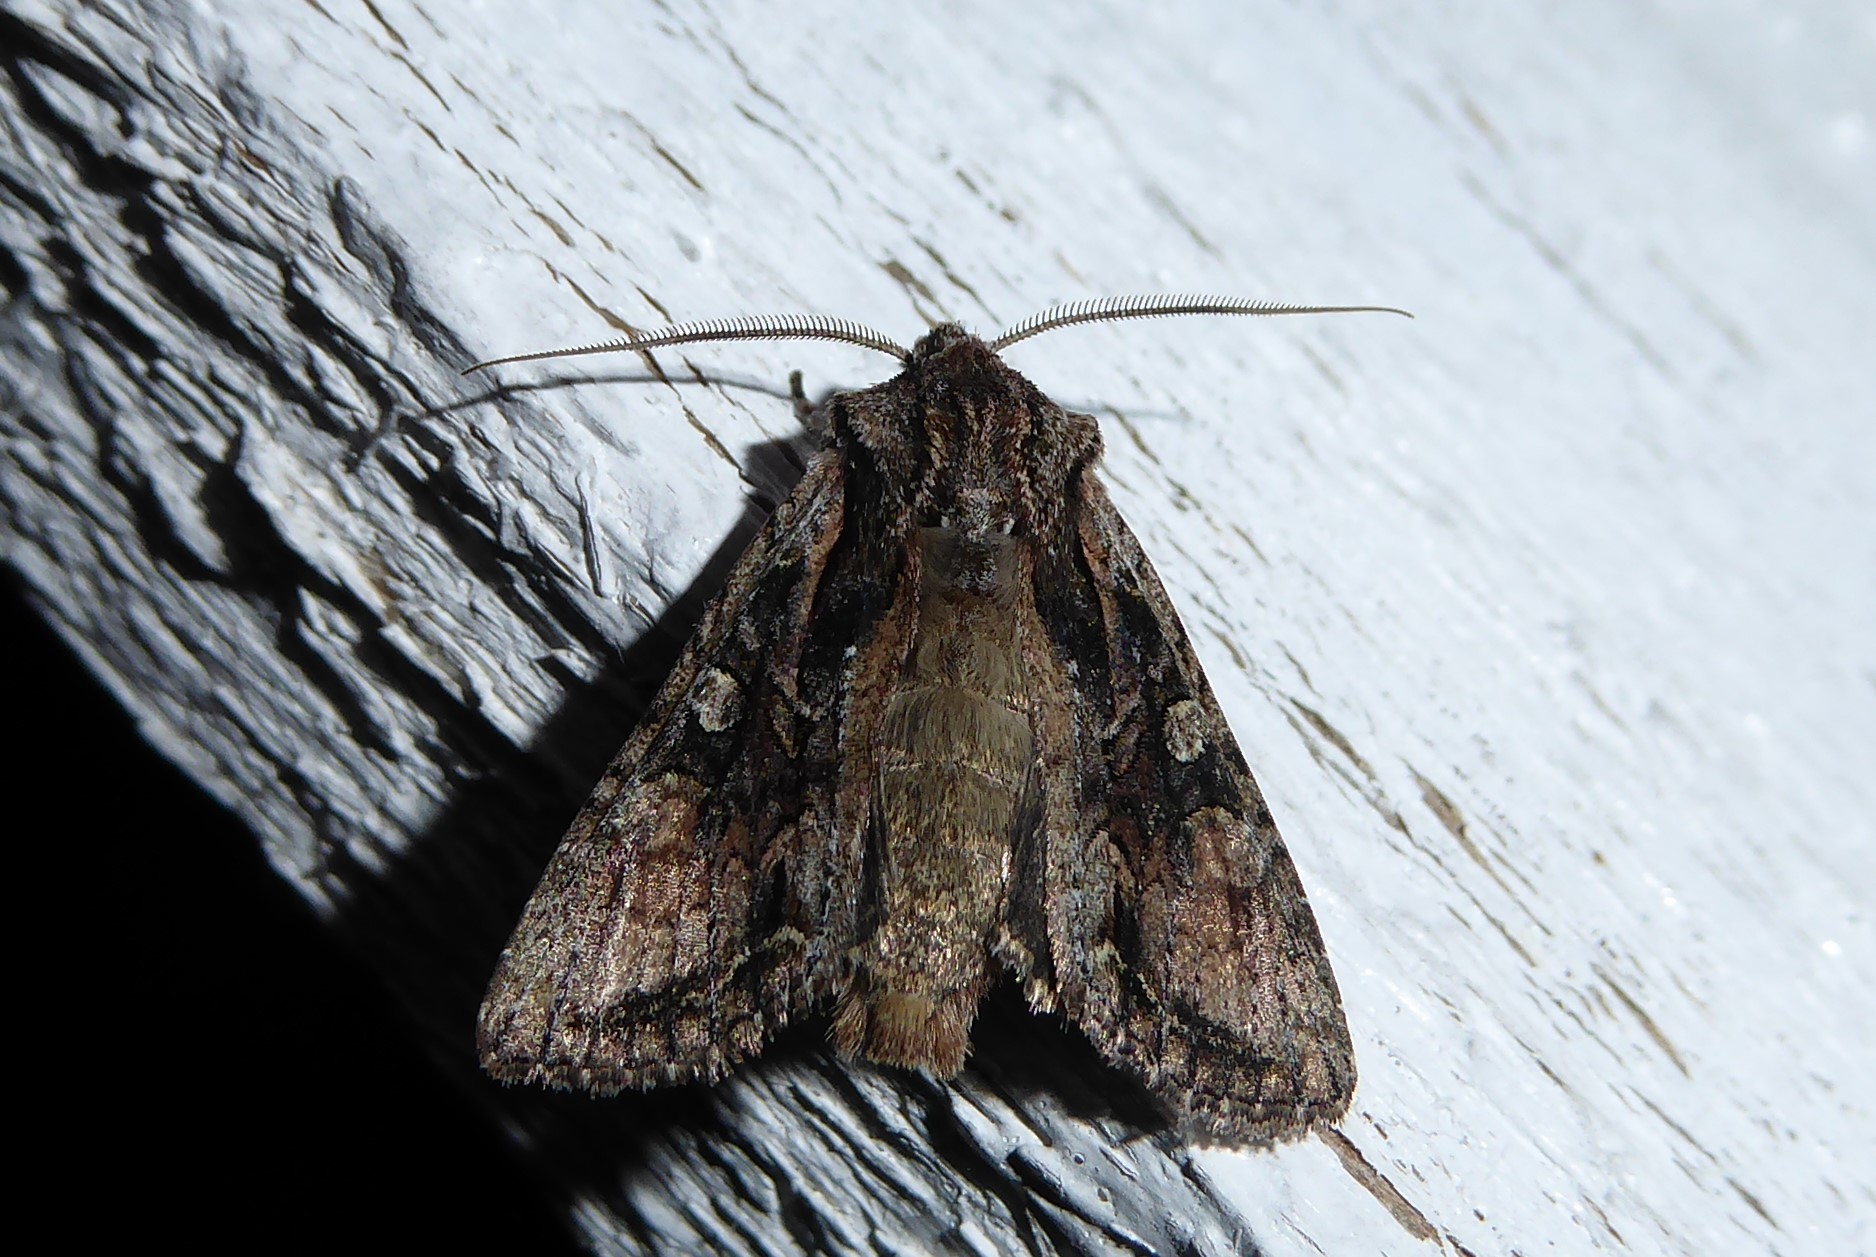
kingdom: Animalia
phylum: Arthropoda
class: Insecta
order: Lepidoptera
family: Noctuidae
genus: Ichneutica
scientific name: Ichneutica mutans
